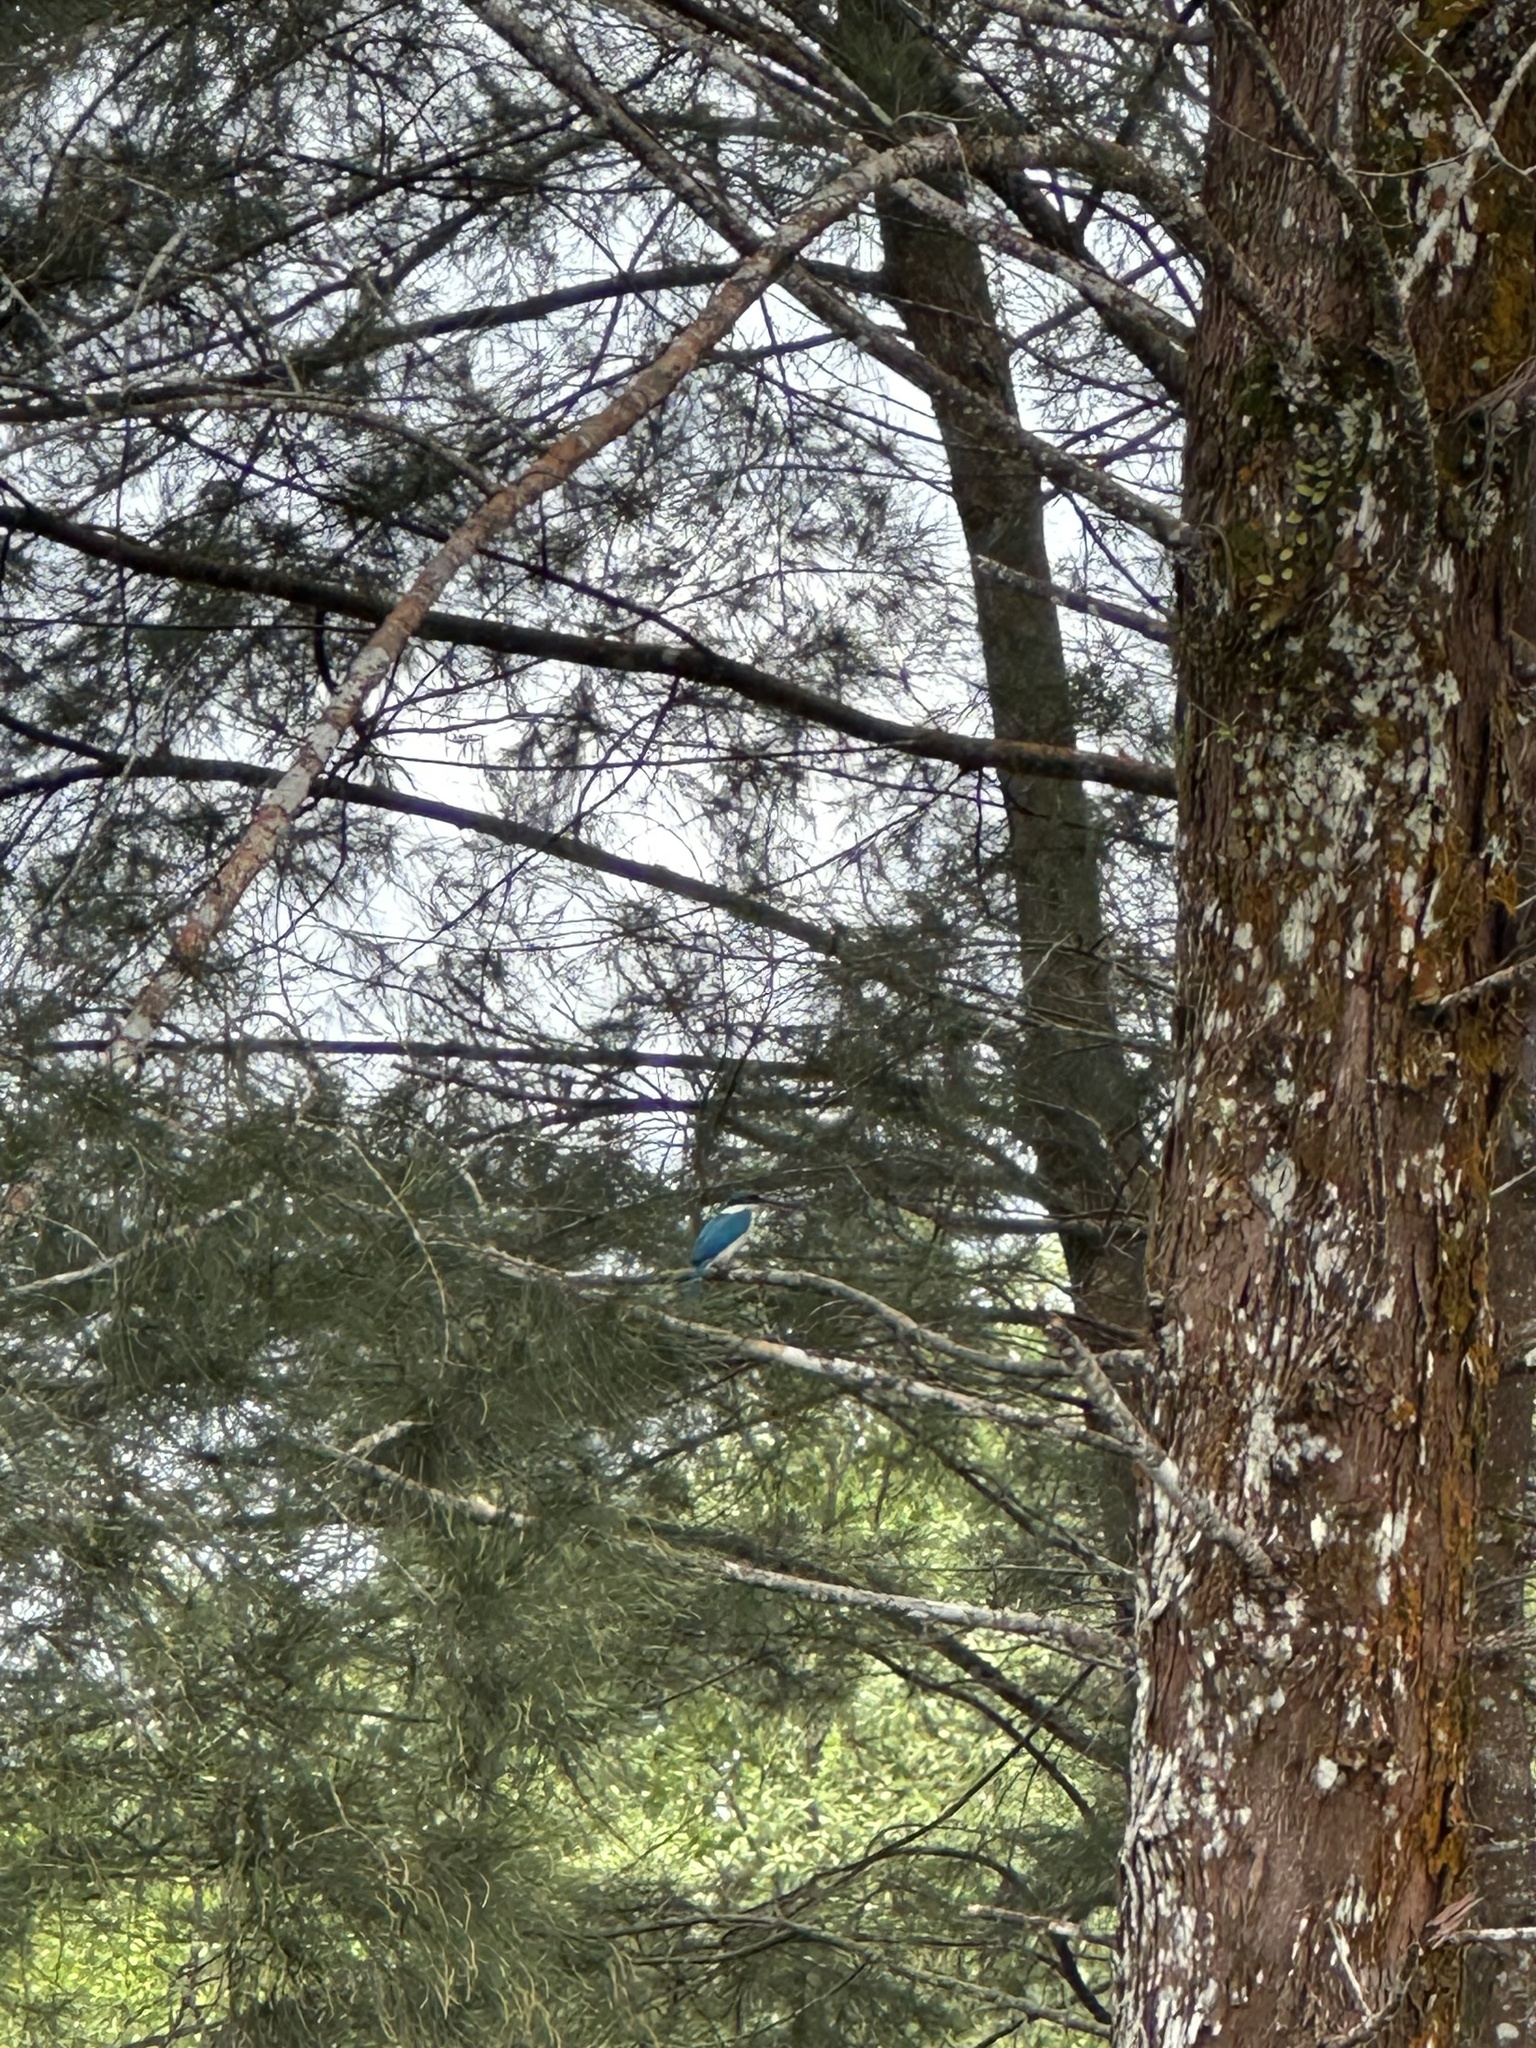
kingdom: Animalia
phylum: Chordata
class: Aves
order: Coraciiformes
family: Alcedinidae
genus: Todiramphus
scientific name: Todiramphus chloris
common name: Collared kingfisher
